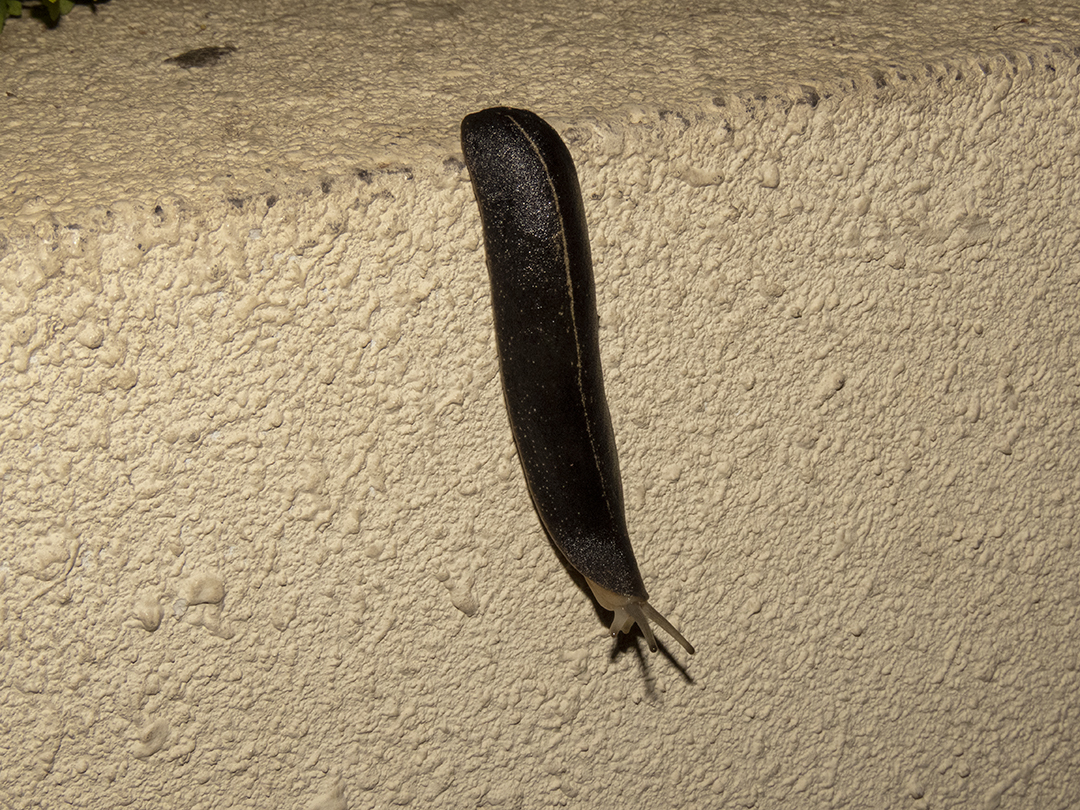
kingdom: Animalia
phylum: Mollusca
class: Gastropoda
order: Systellommatophora
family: Veronicellidae
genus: Laevicaulis
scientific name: Laevicaulis alte
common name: Tropical leatherleaf
